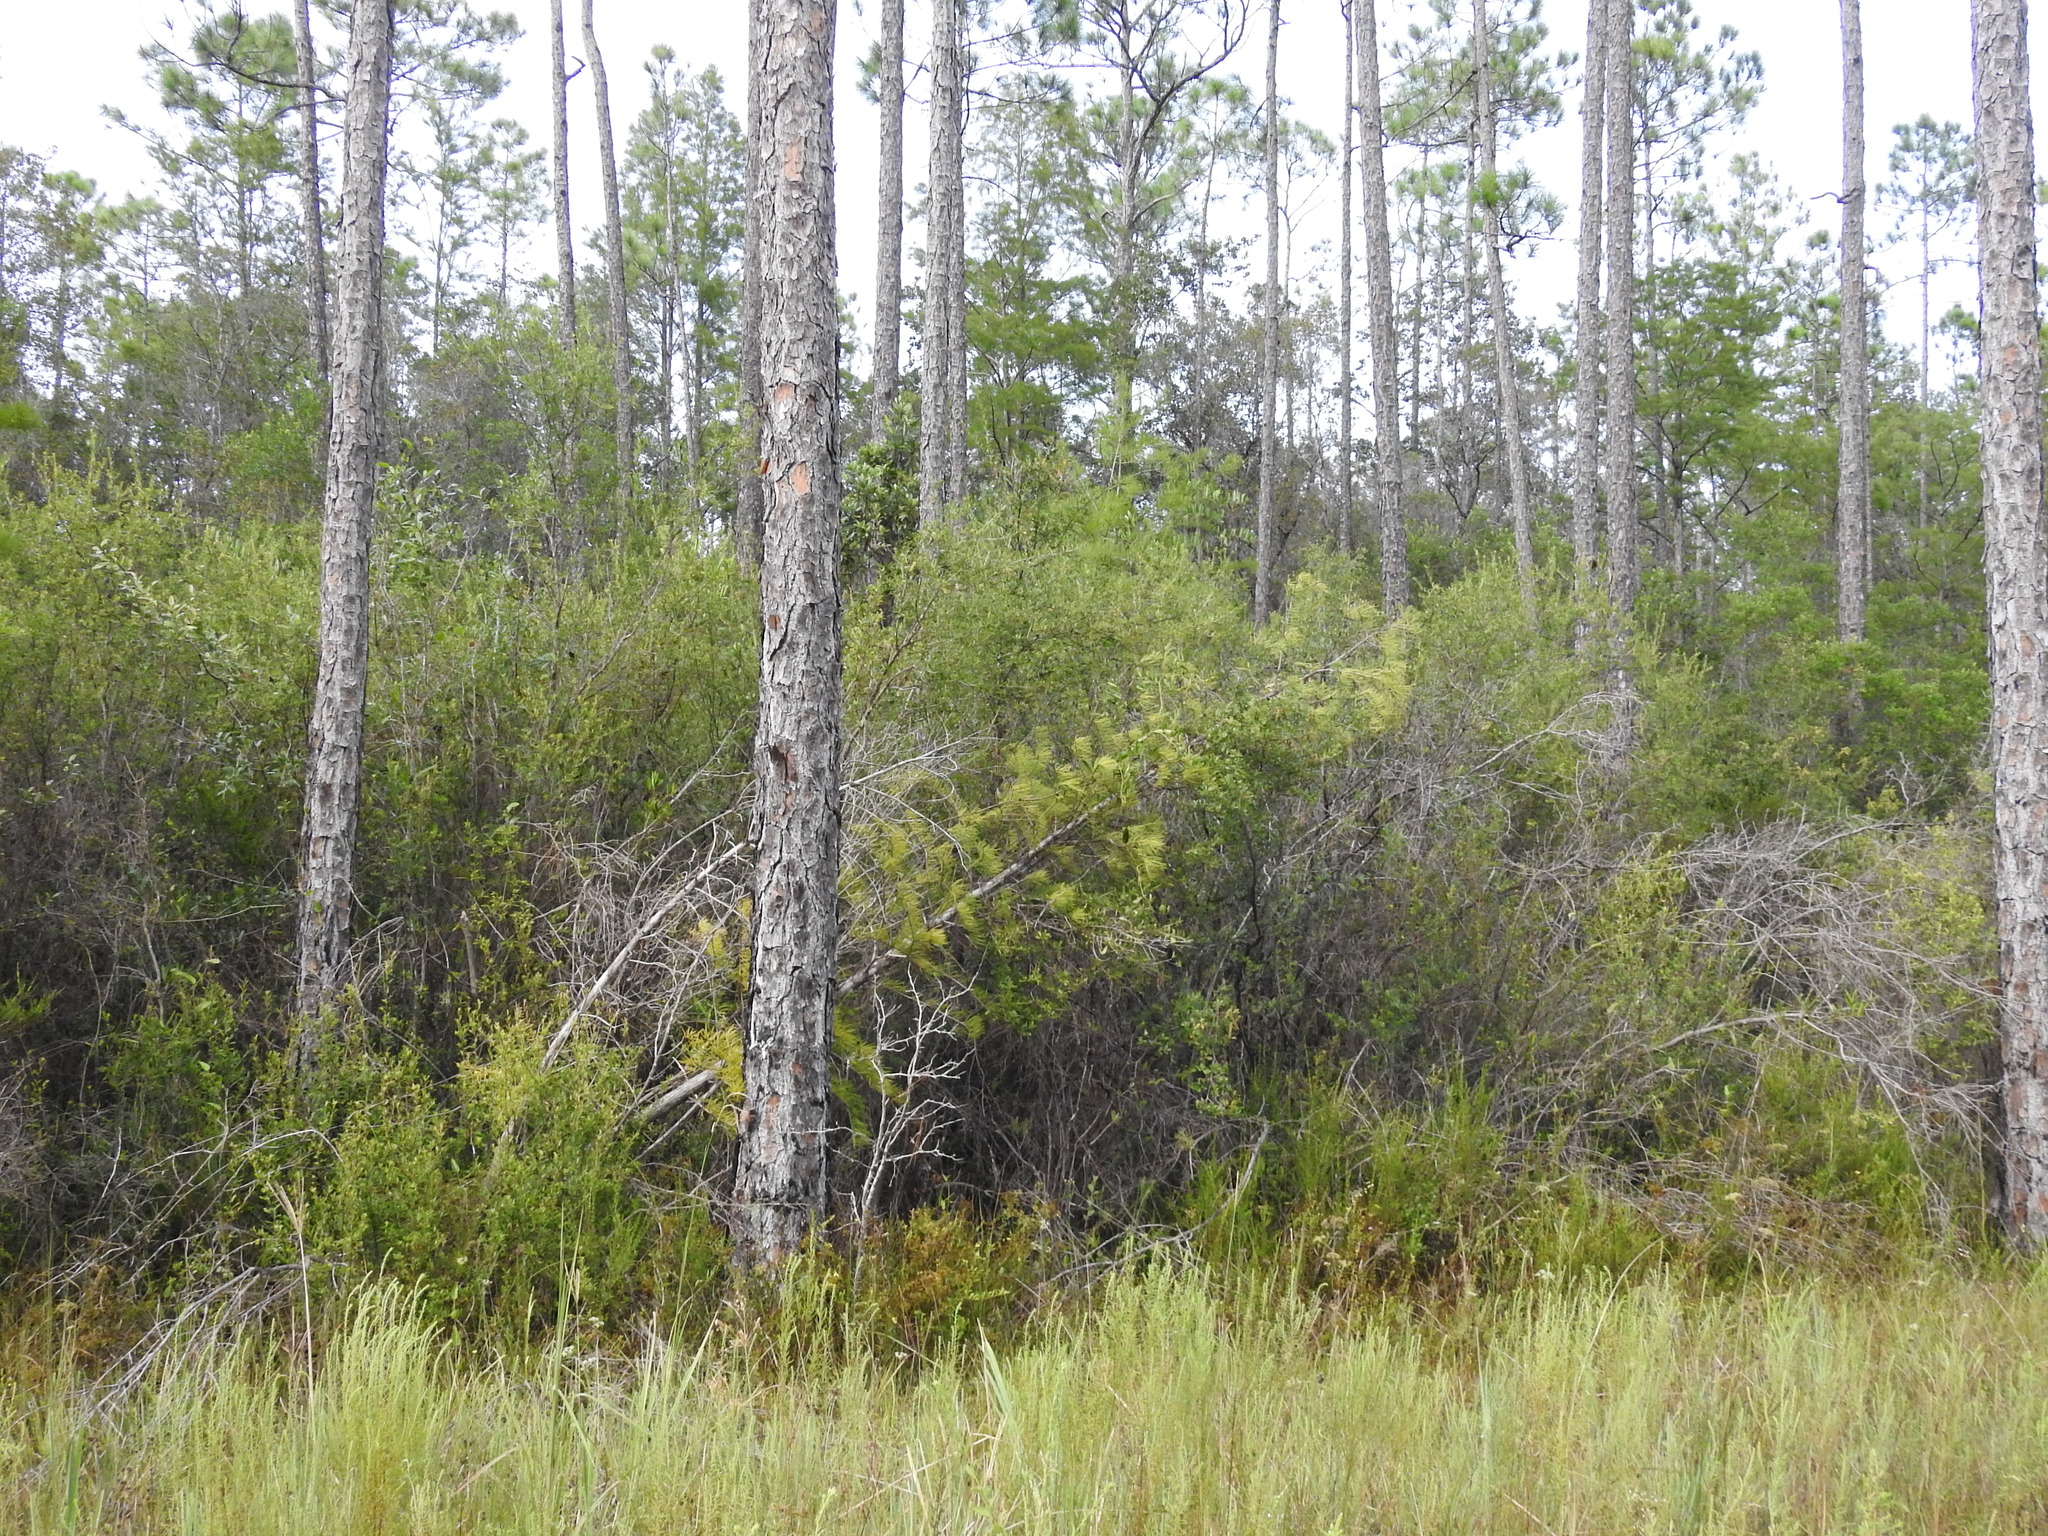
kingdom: Plantae
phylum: Tracheophyta
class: Pinopsida
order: Pinales
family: Cupressaceae
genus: Taxodium
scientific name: Taxodium distichum
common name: Bald cypress
